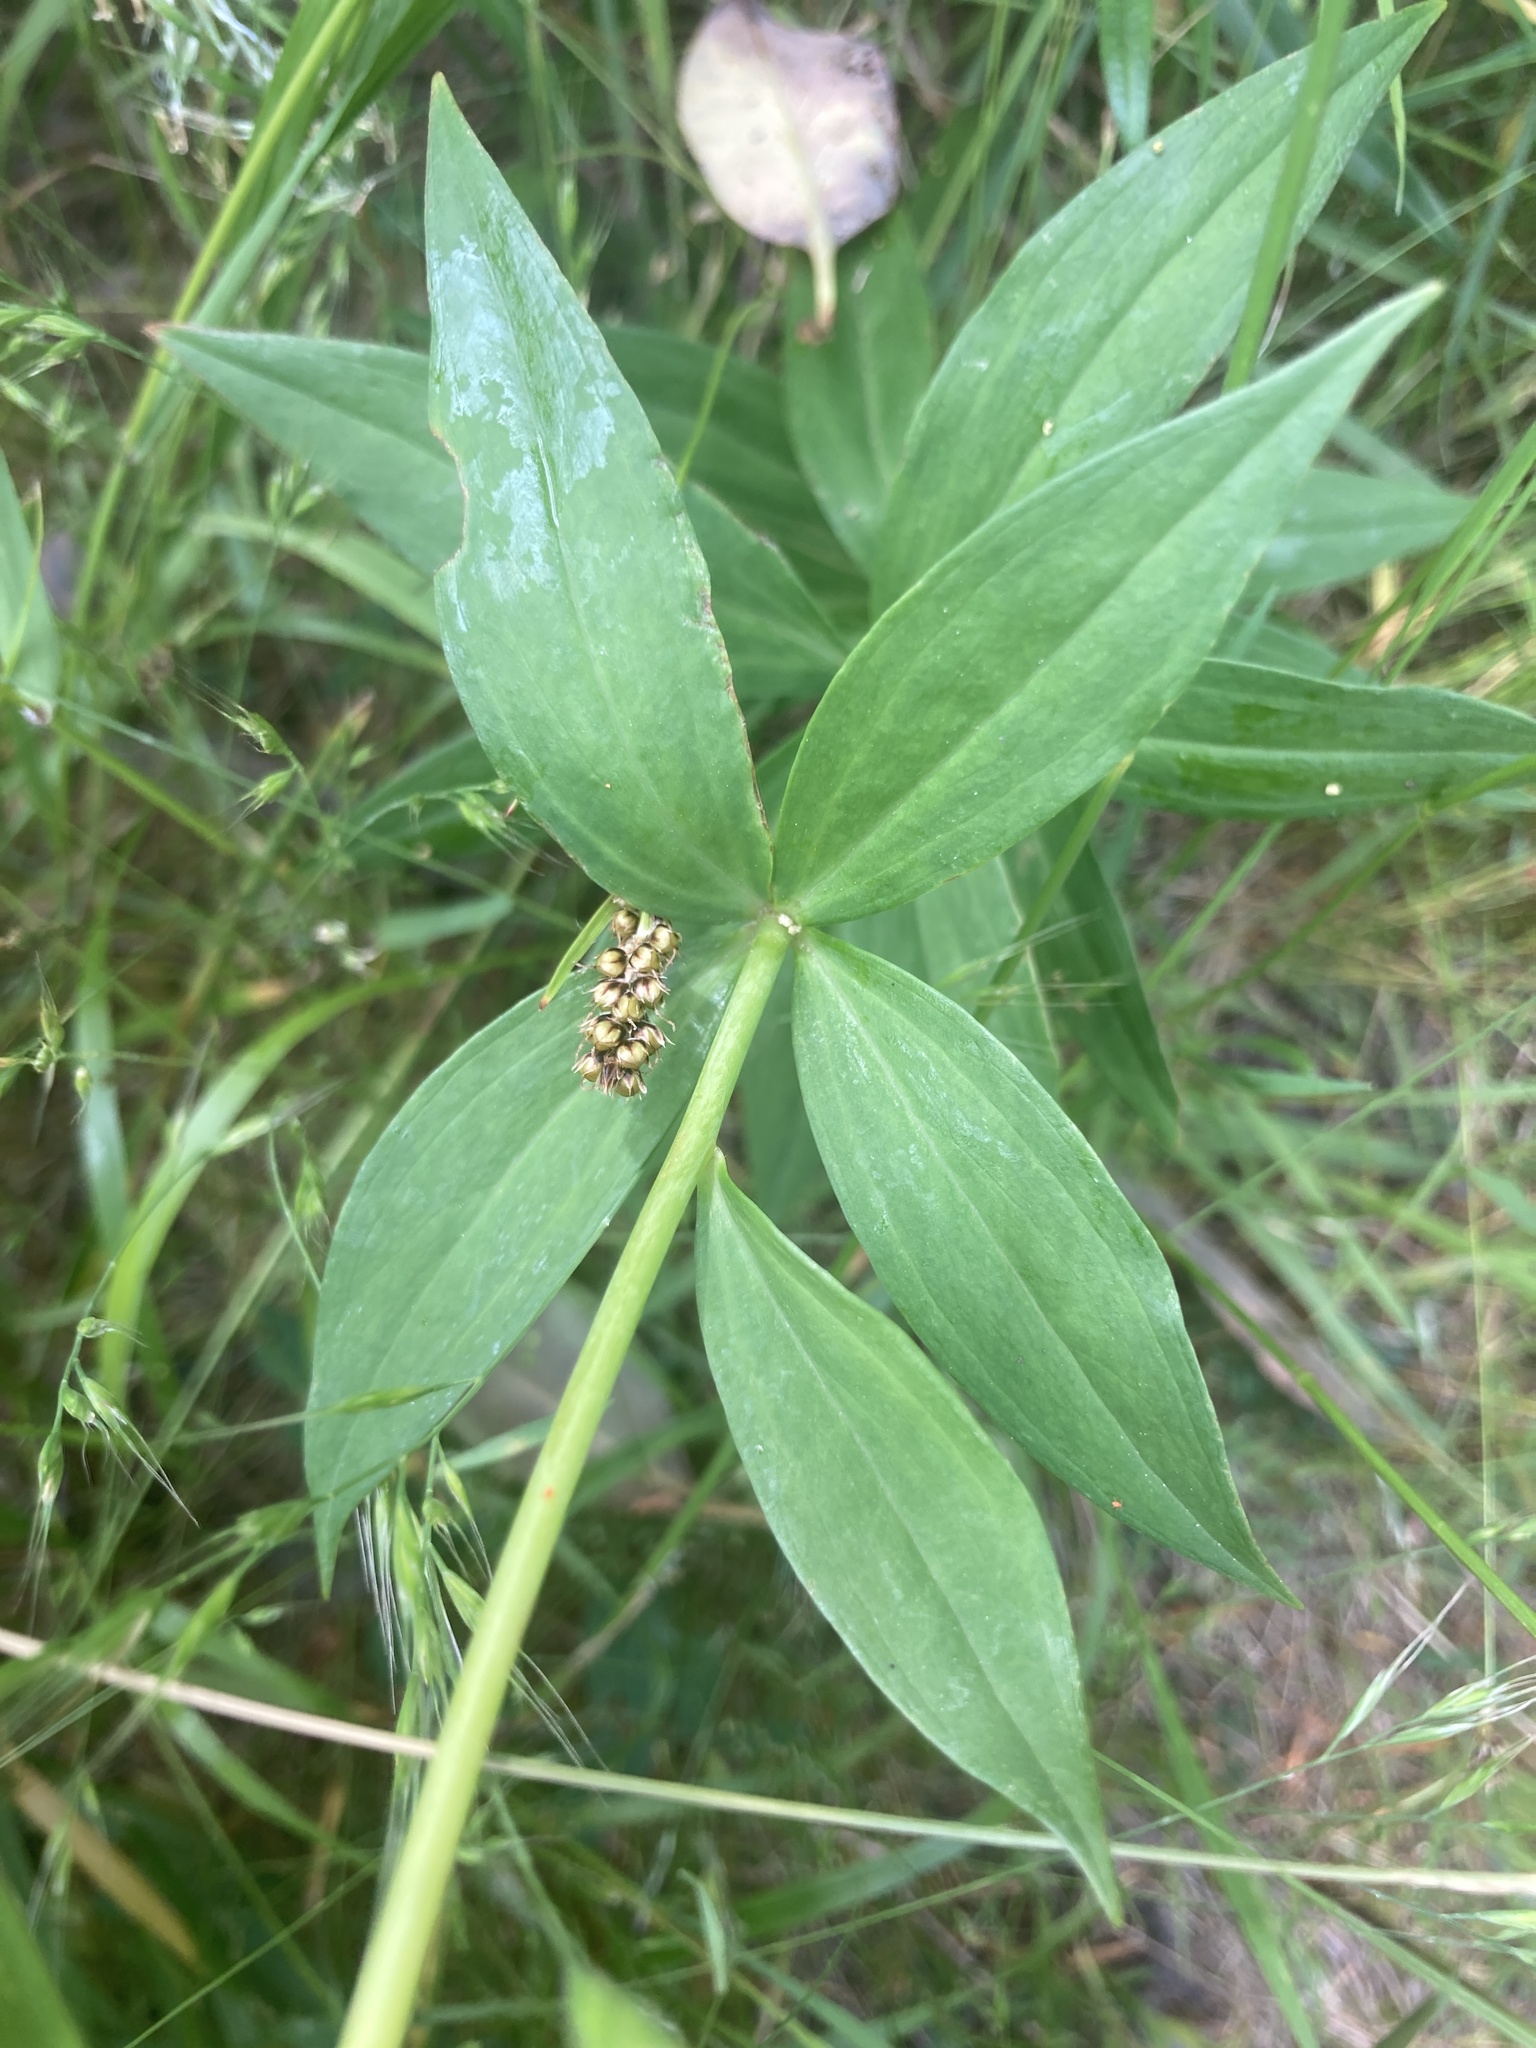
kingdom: Plantae
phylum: Tracheophyta
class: Liliopsida
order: Liliales
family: Liliaceae
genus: Lilium
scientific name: Lilium columbianum
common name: Columbia lily
